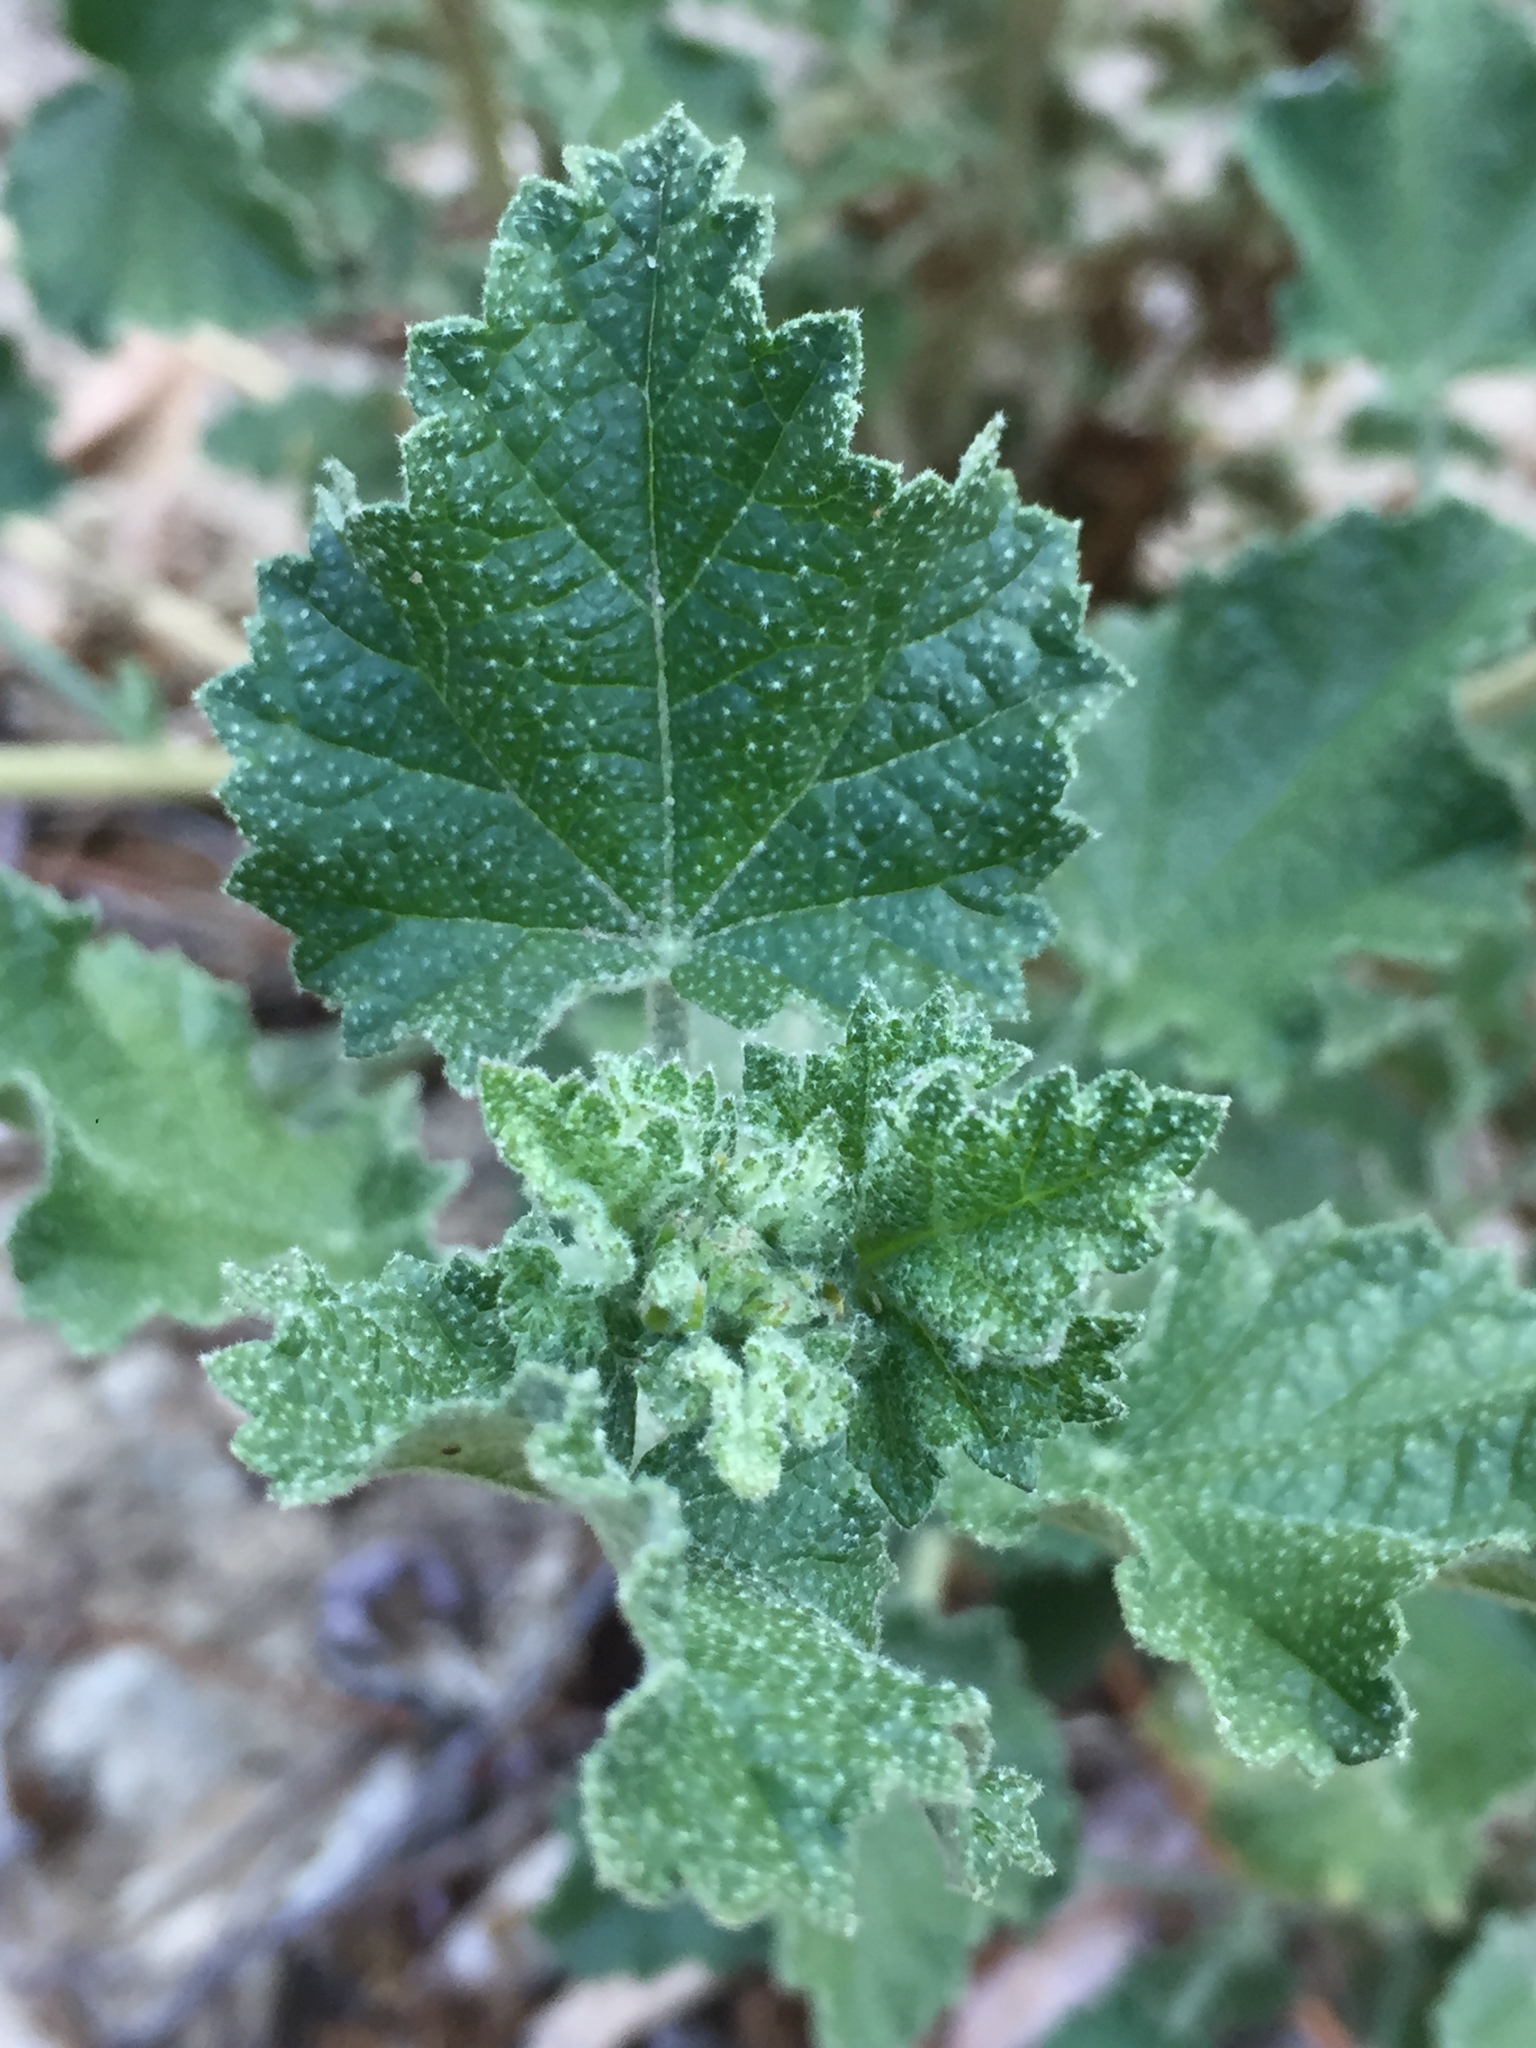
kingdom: Plantae
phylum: Tracheophyta
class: Magnoliopsida
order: Malvales
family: Malvaceae
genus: Malacothamnus
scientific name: Malacothamnus fasciculatus
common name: Sant cruz island bush-mallow
